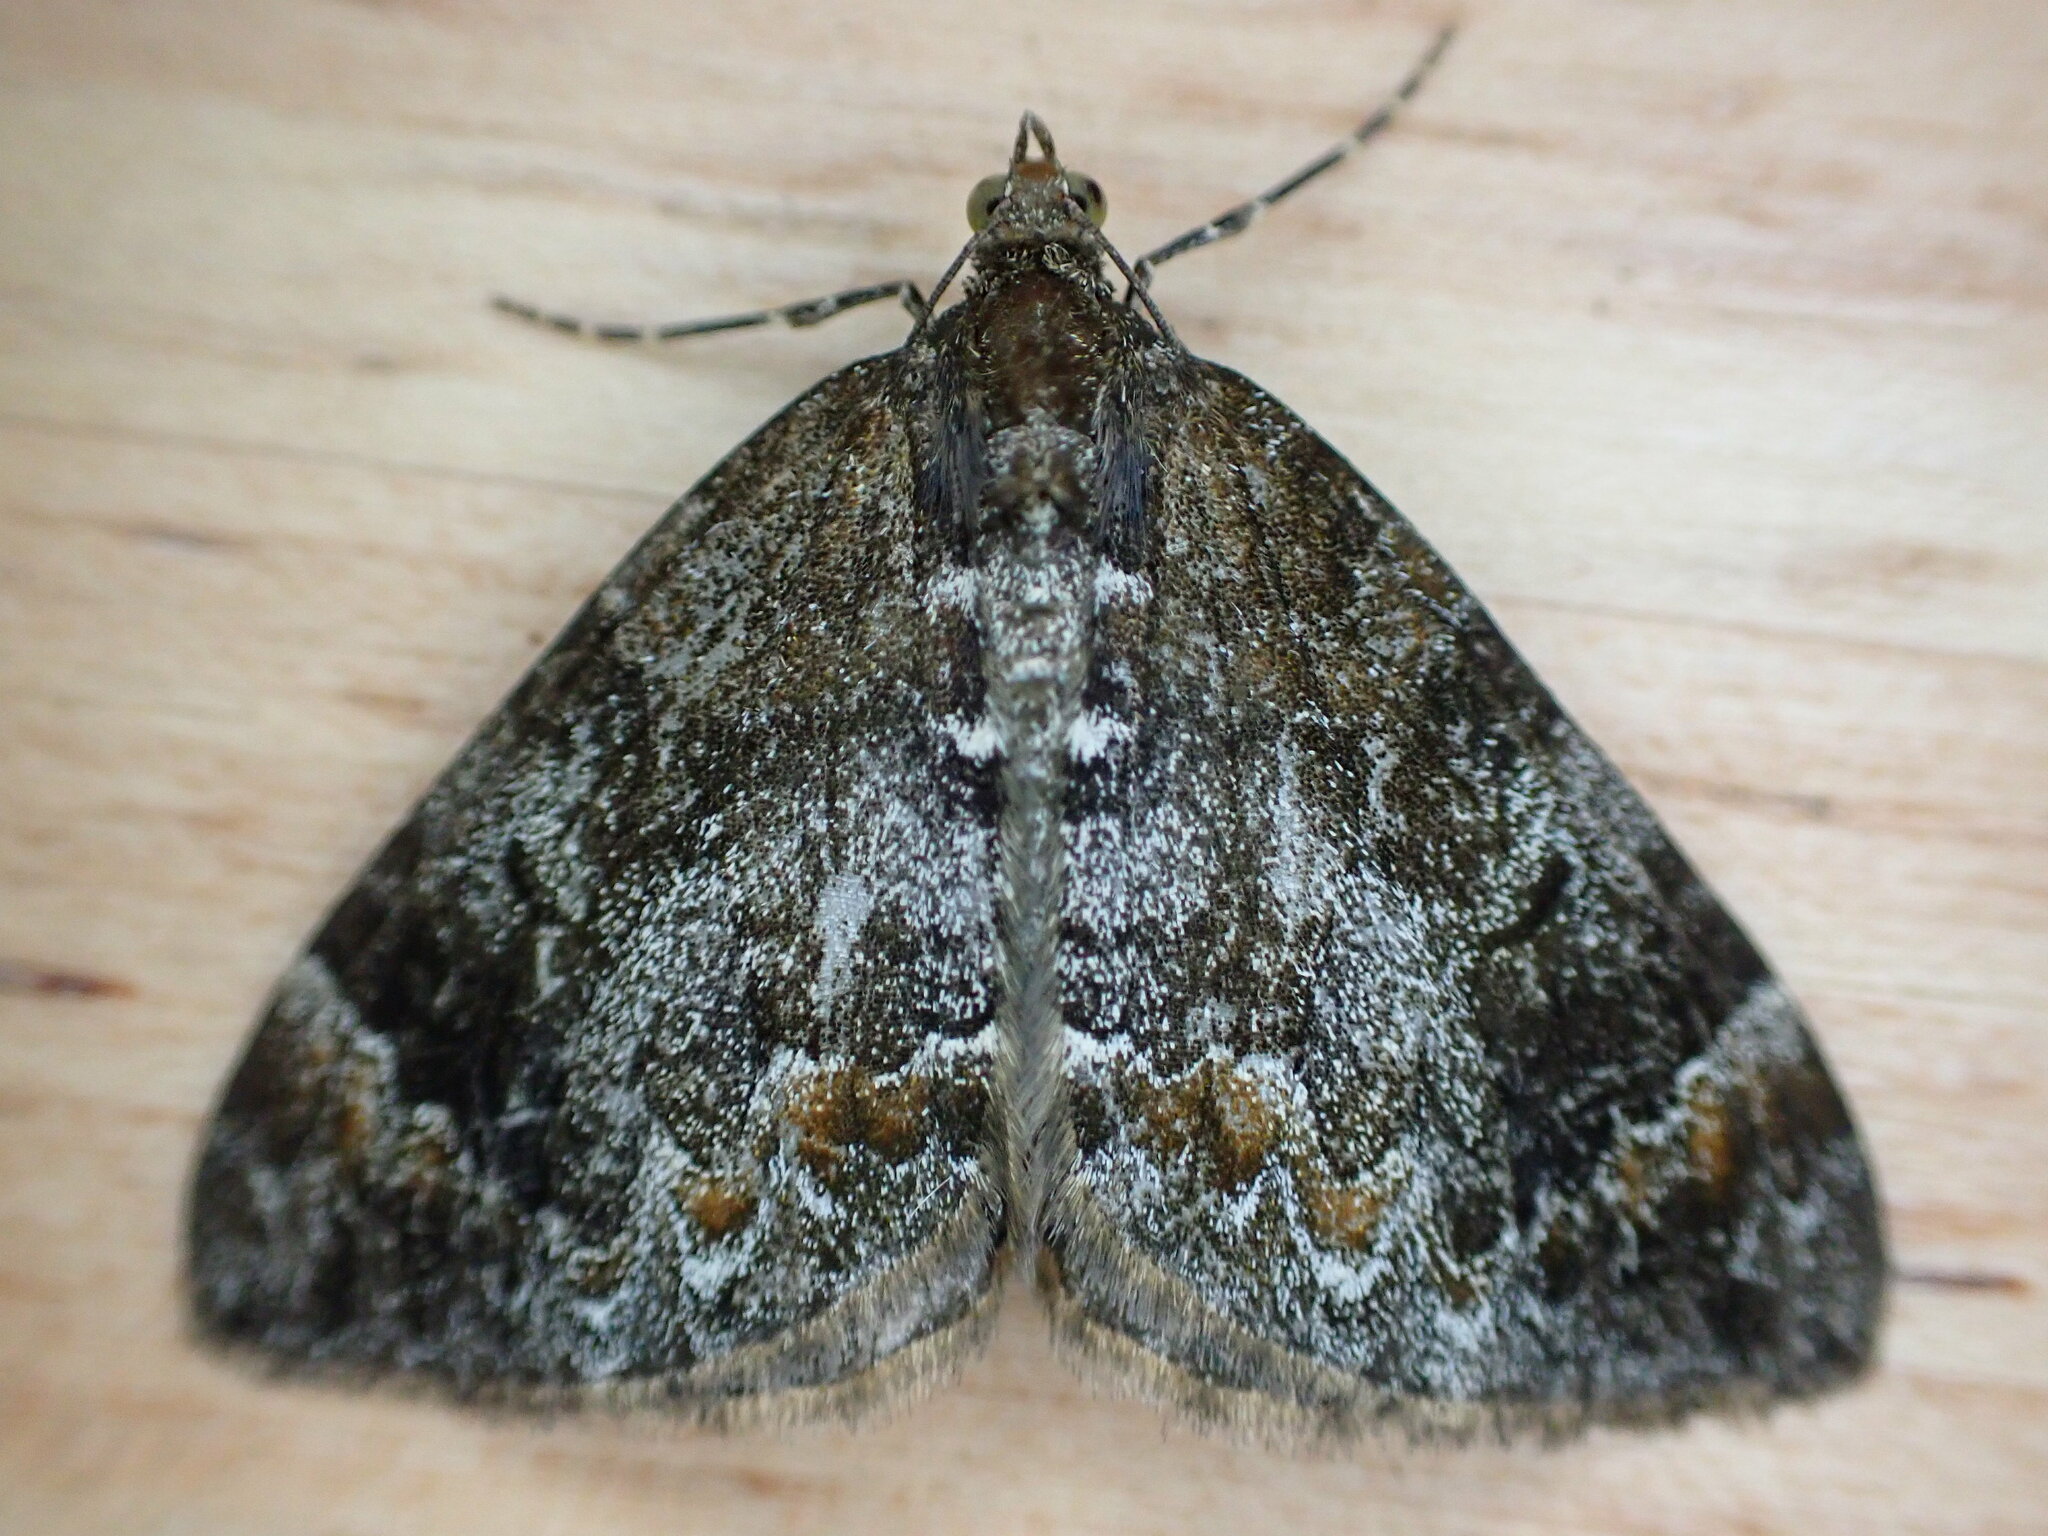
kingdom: Animalia
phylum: Arthropoda
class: Insecta
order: Lepidoptera
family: Geometridae
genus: Dysstroma
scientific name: Dysstroma truncata
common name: Common marbled carpet
